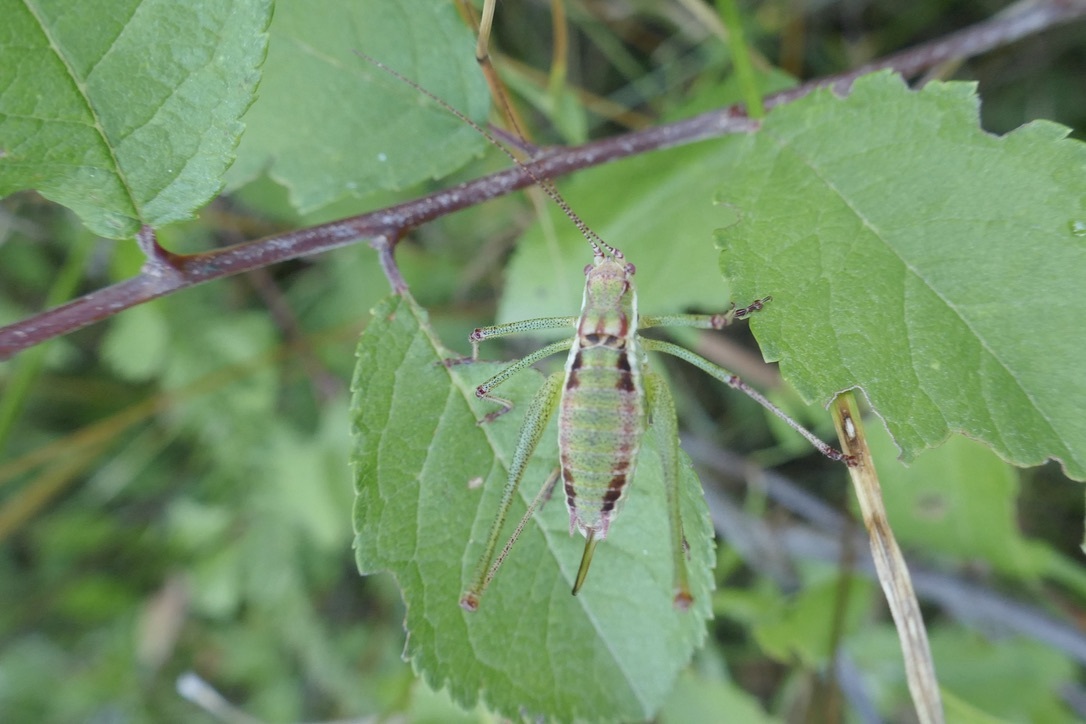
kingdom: Animalia
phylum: Arthropoda
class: Insecta
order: Orthoptera
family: Tettigoniidae
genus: Leptophyes
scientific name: Leptophyes albovittata
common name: Striped bush-cricket
